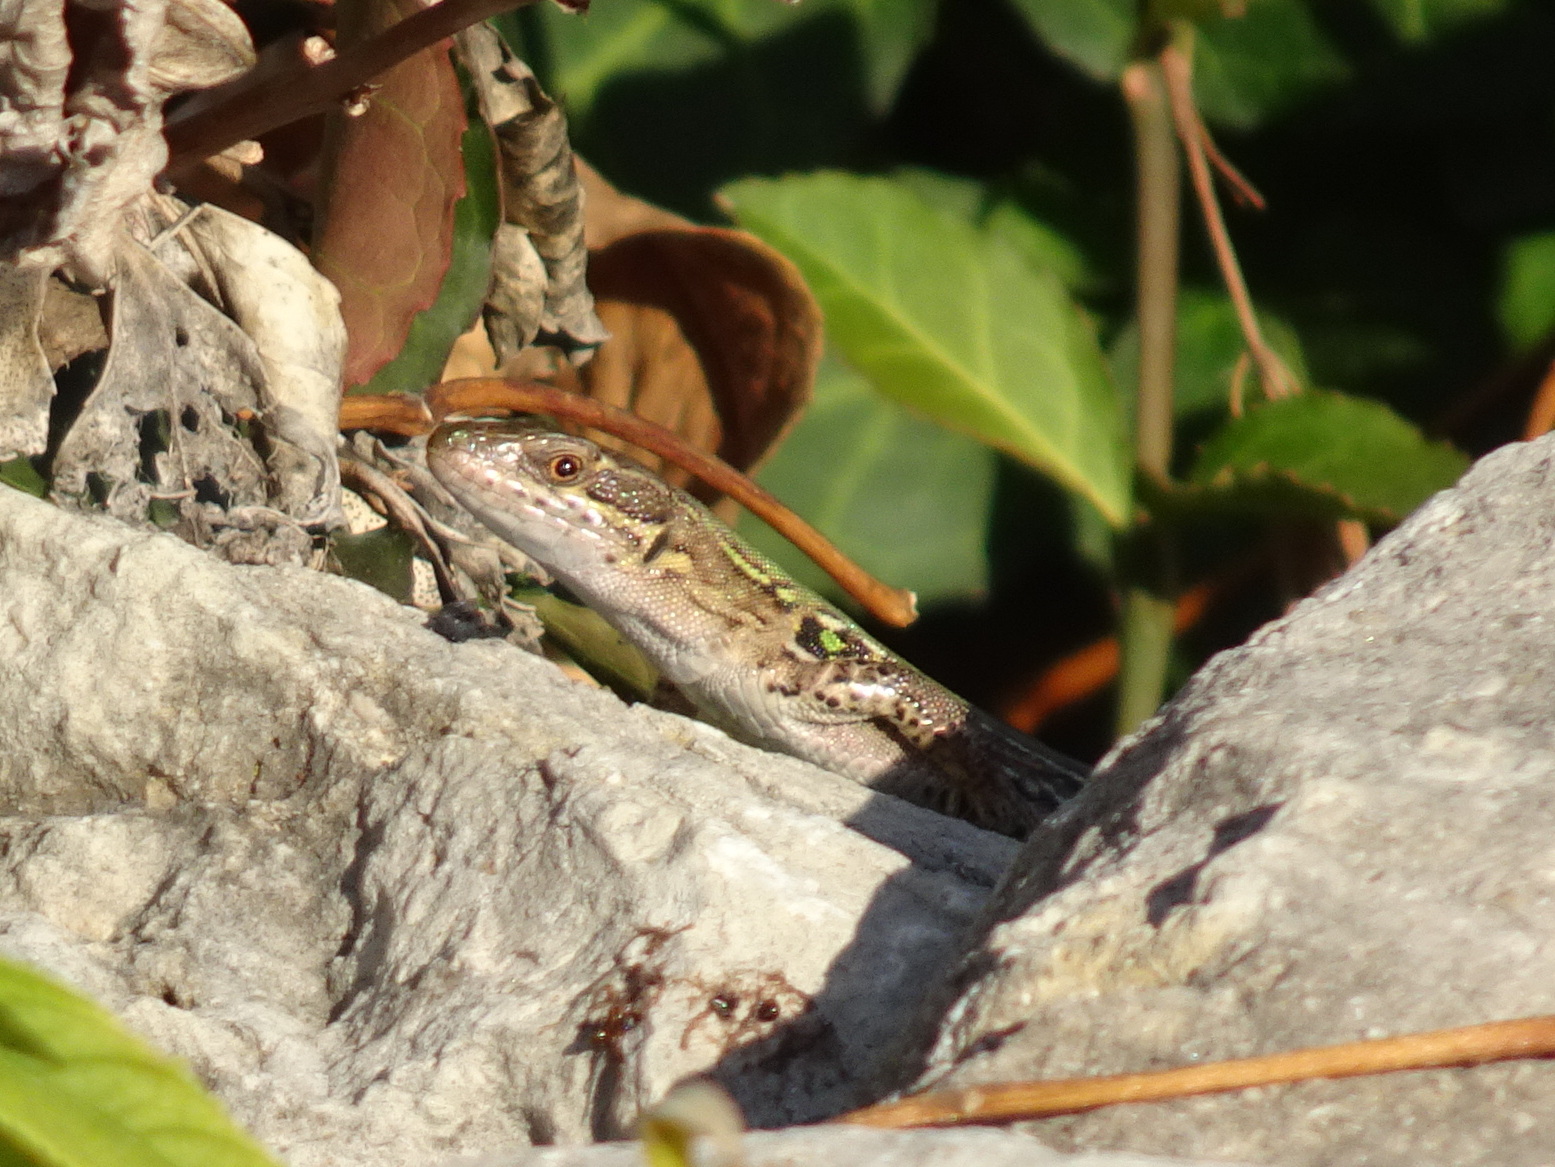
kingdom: Animalia
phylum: Chordata
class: Squamata
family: Lacertidae
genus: Podarcis
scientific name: Podarcis siculus
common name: Italian wall lizard
